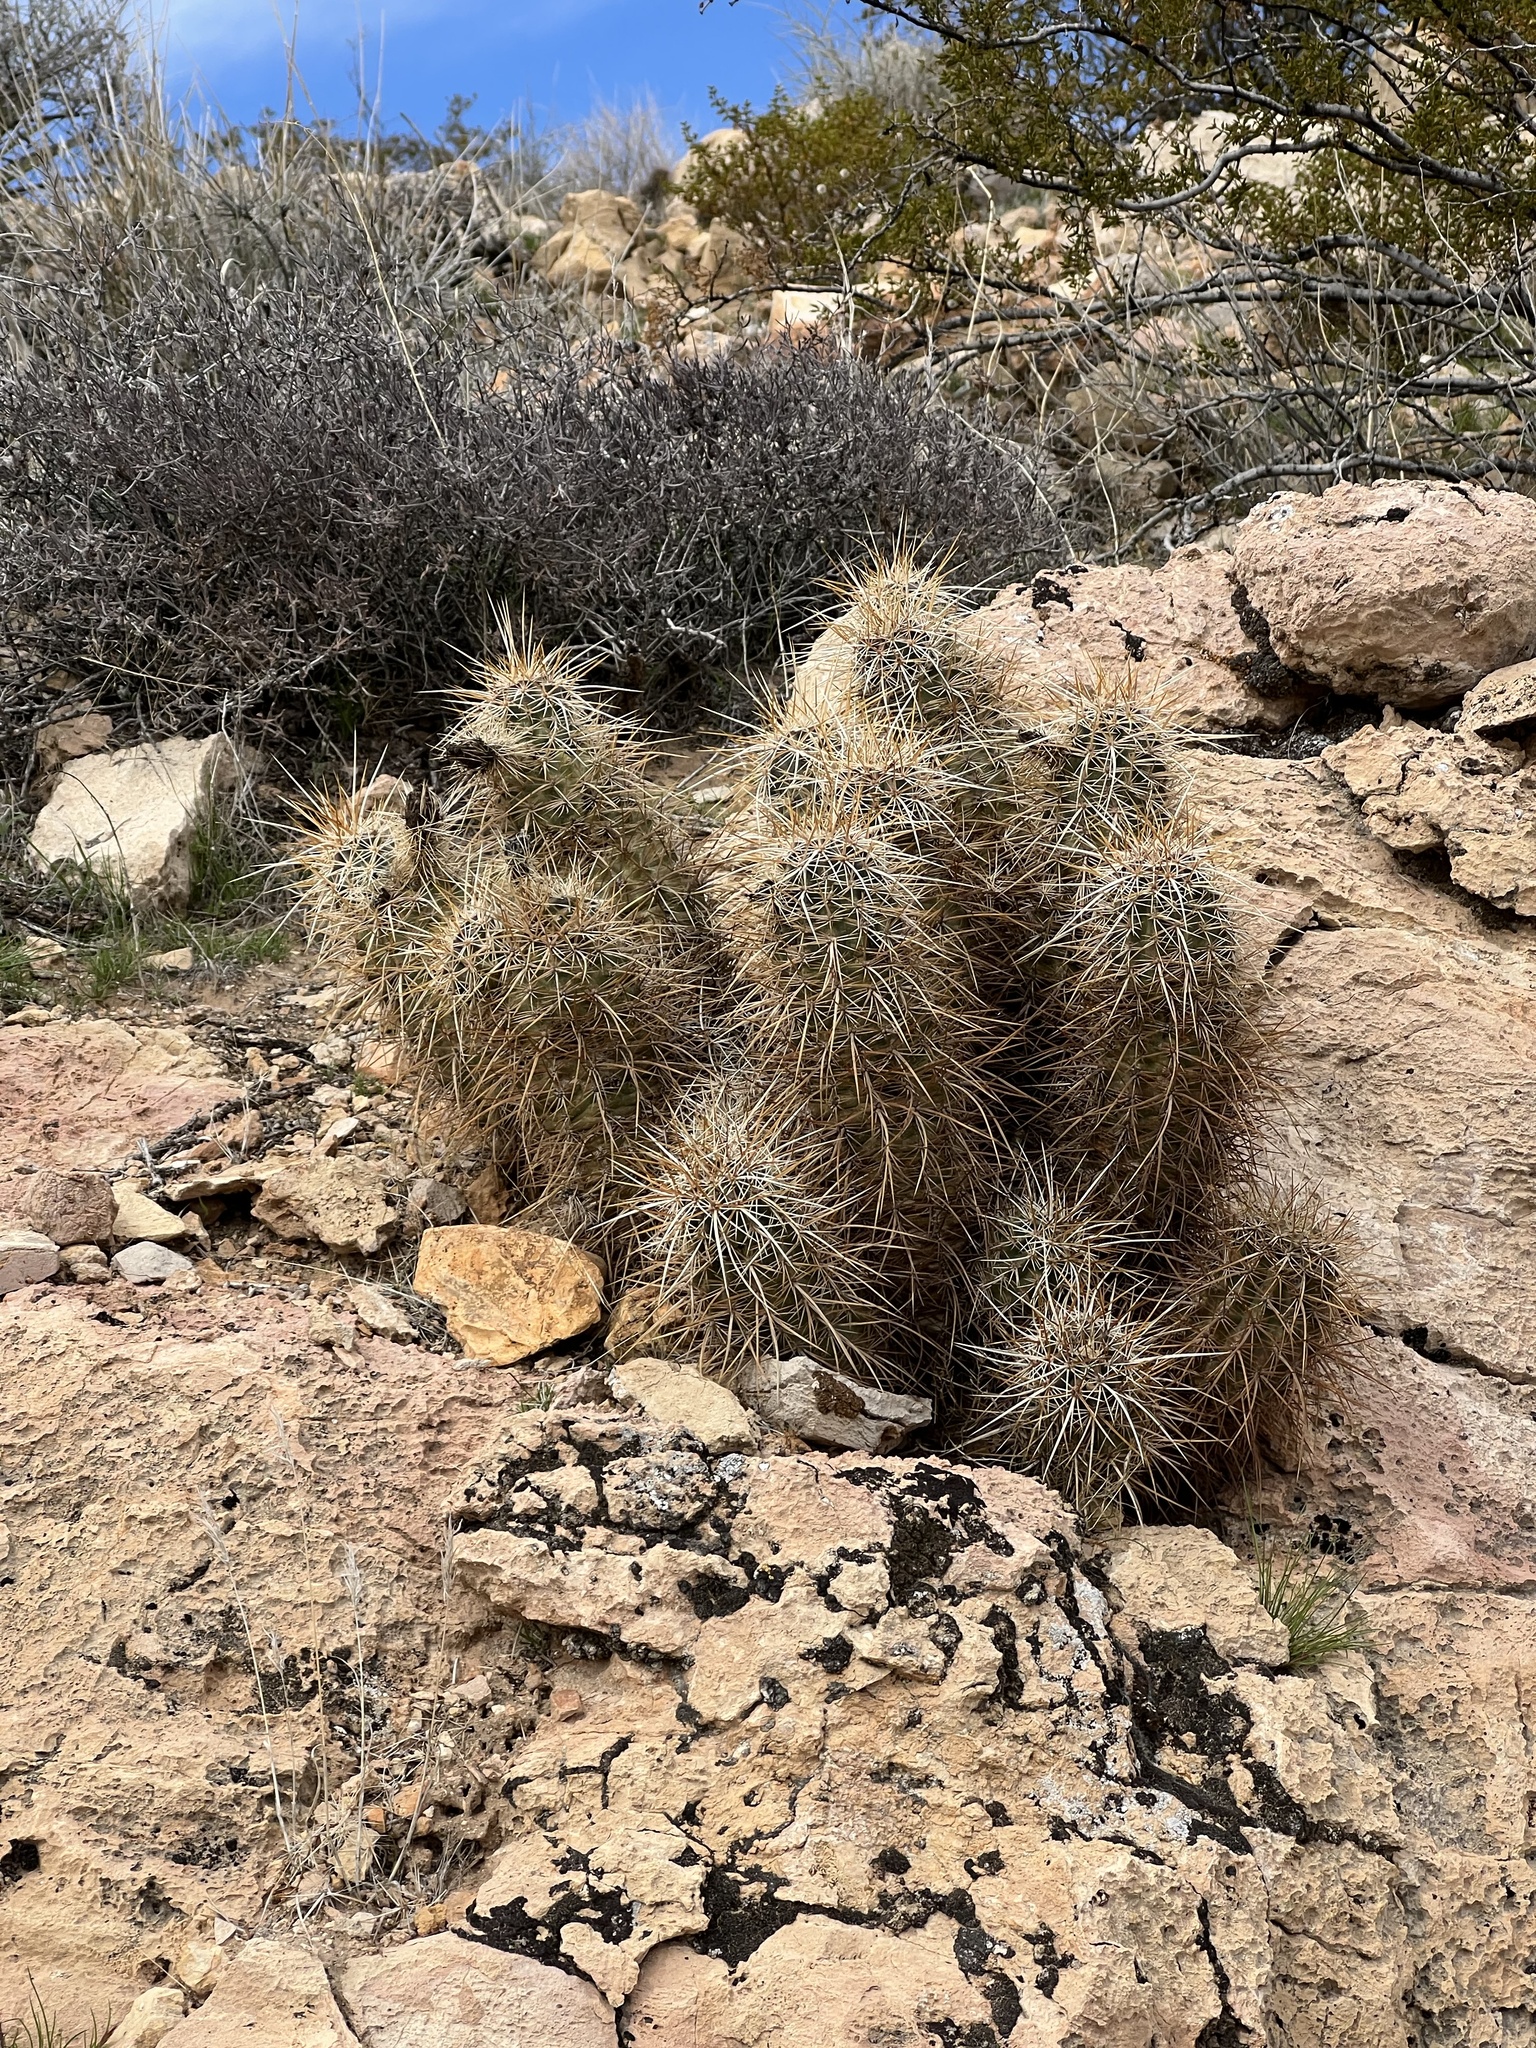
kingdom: Plantae
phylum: Tracheophyta
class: Magnoliopsida
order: Caryophyllales
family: Cactaceae
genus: Echinocereus
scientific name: Echinocereus engelmannii
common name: Engelmann's hedgehog cactus
